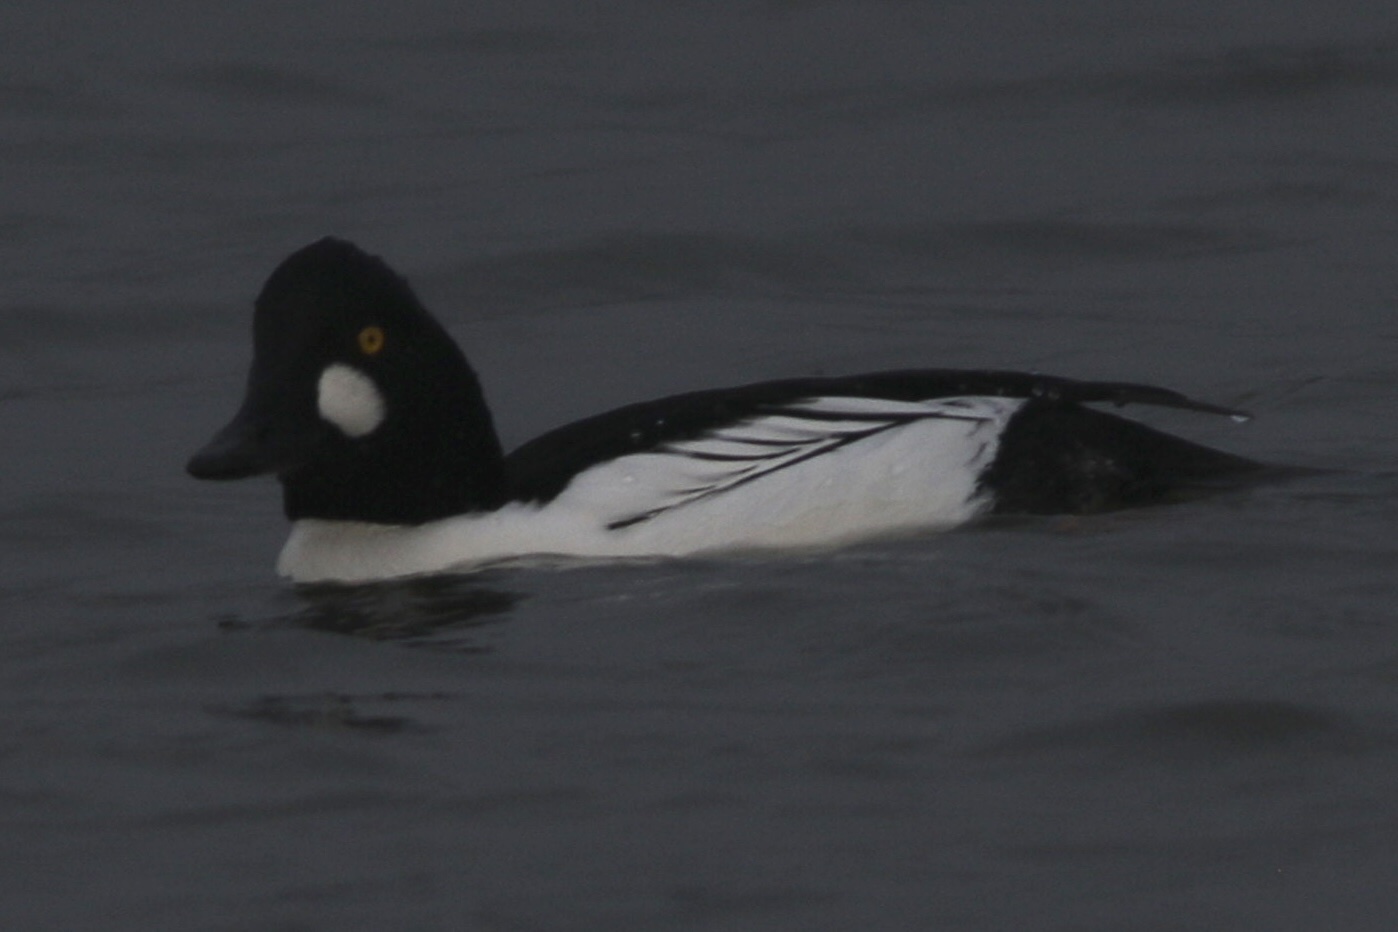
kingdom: Animalia
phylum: Chordata
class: Aves
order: Anseriformes
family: Anatidae
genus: Bucephala
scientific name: Bucephala clangula
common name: Common goldeneye
